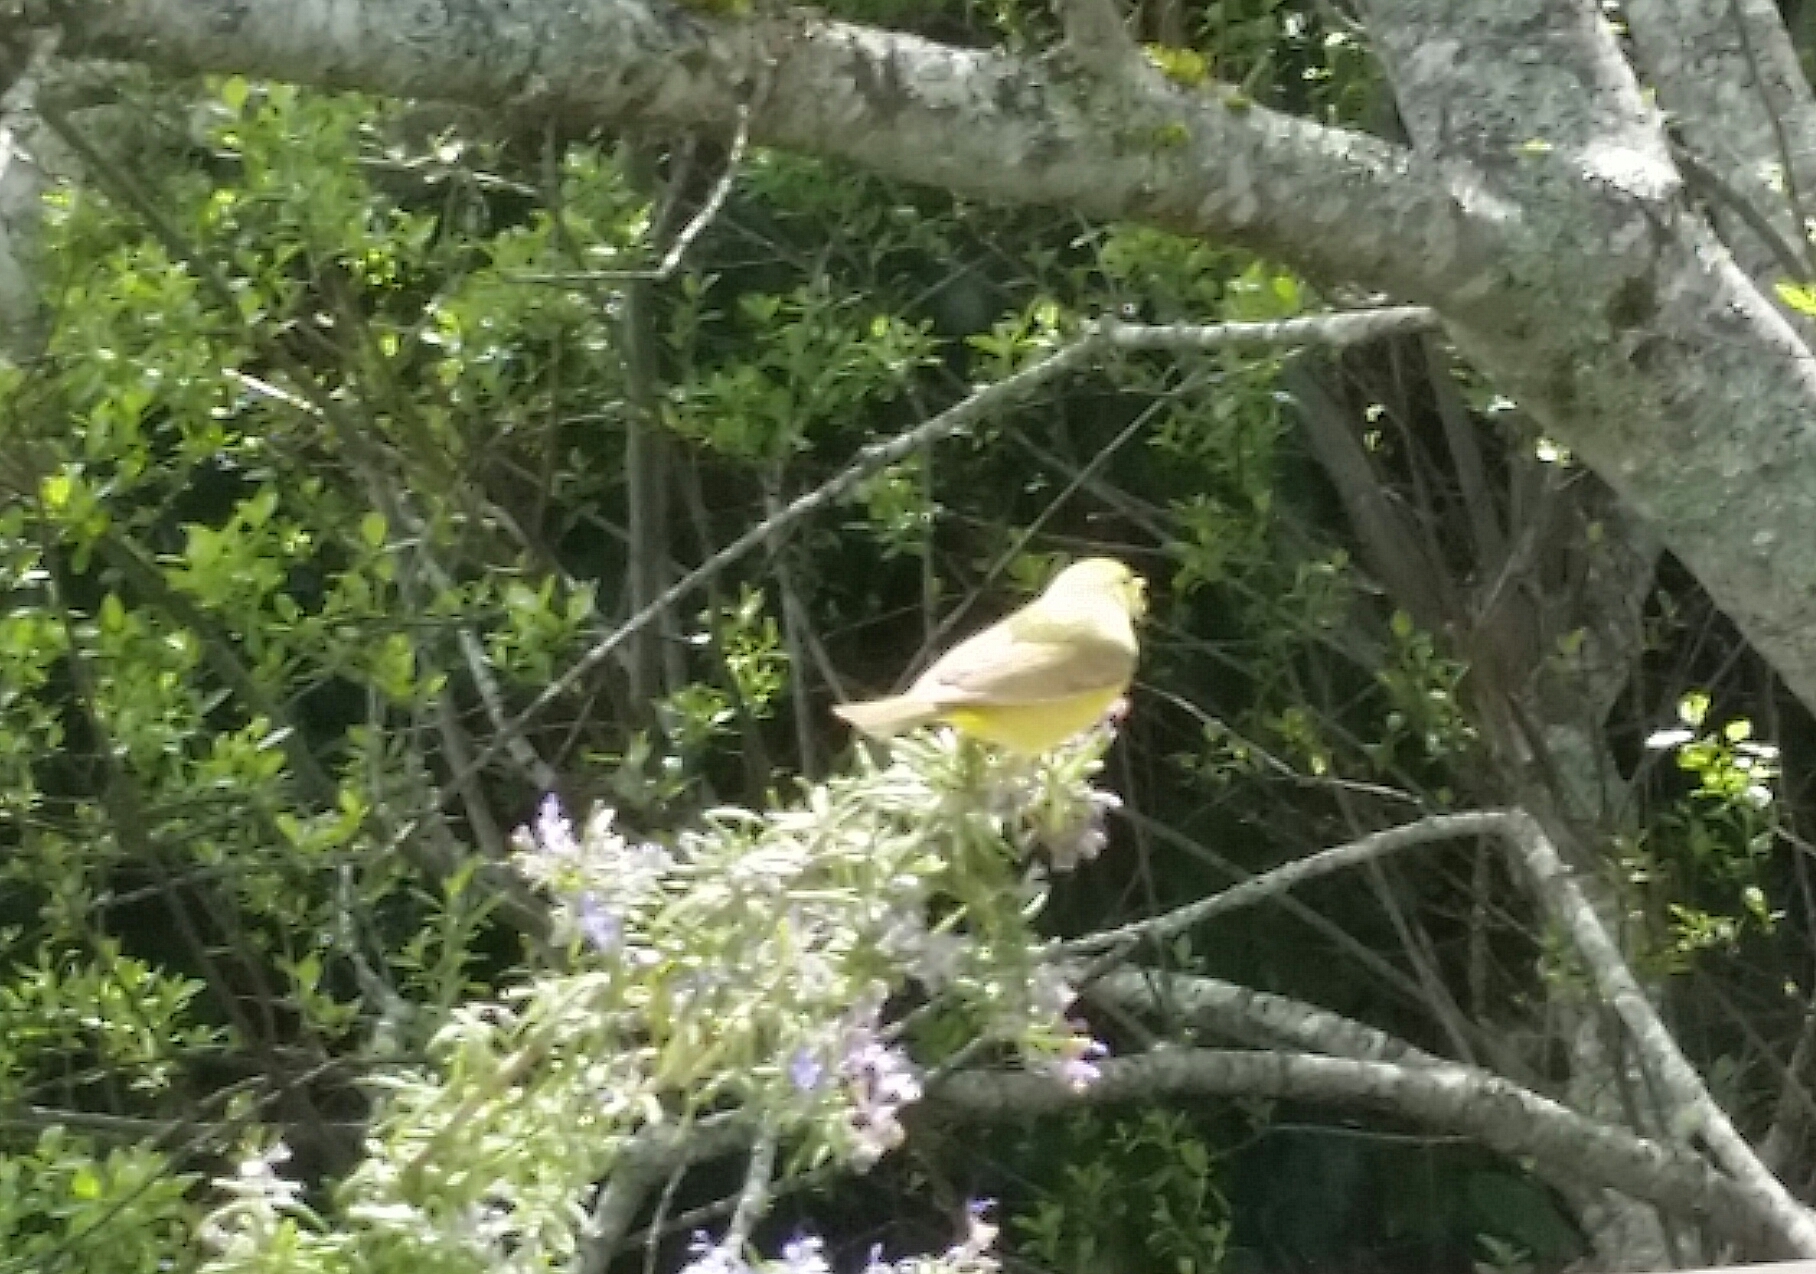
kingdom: Animalia
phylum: Chordata
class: Aves
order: Passeriformes
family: Parulidae
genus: Leiothlypis
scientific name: Leiothlypis celata
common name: Orange-crowned warbler
